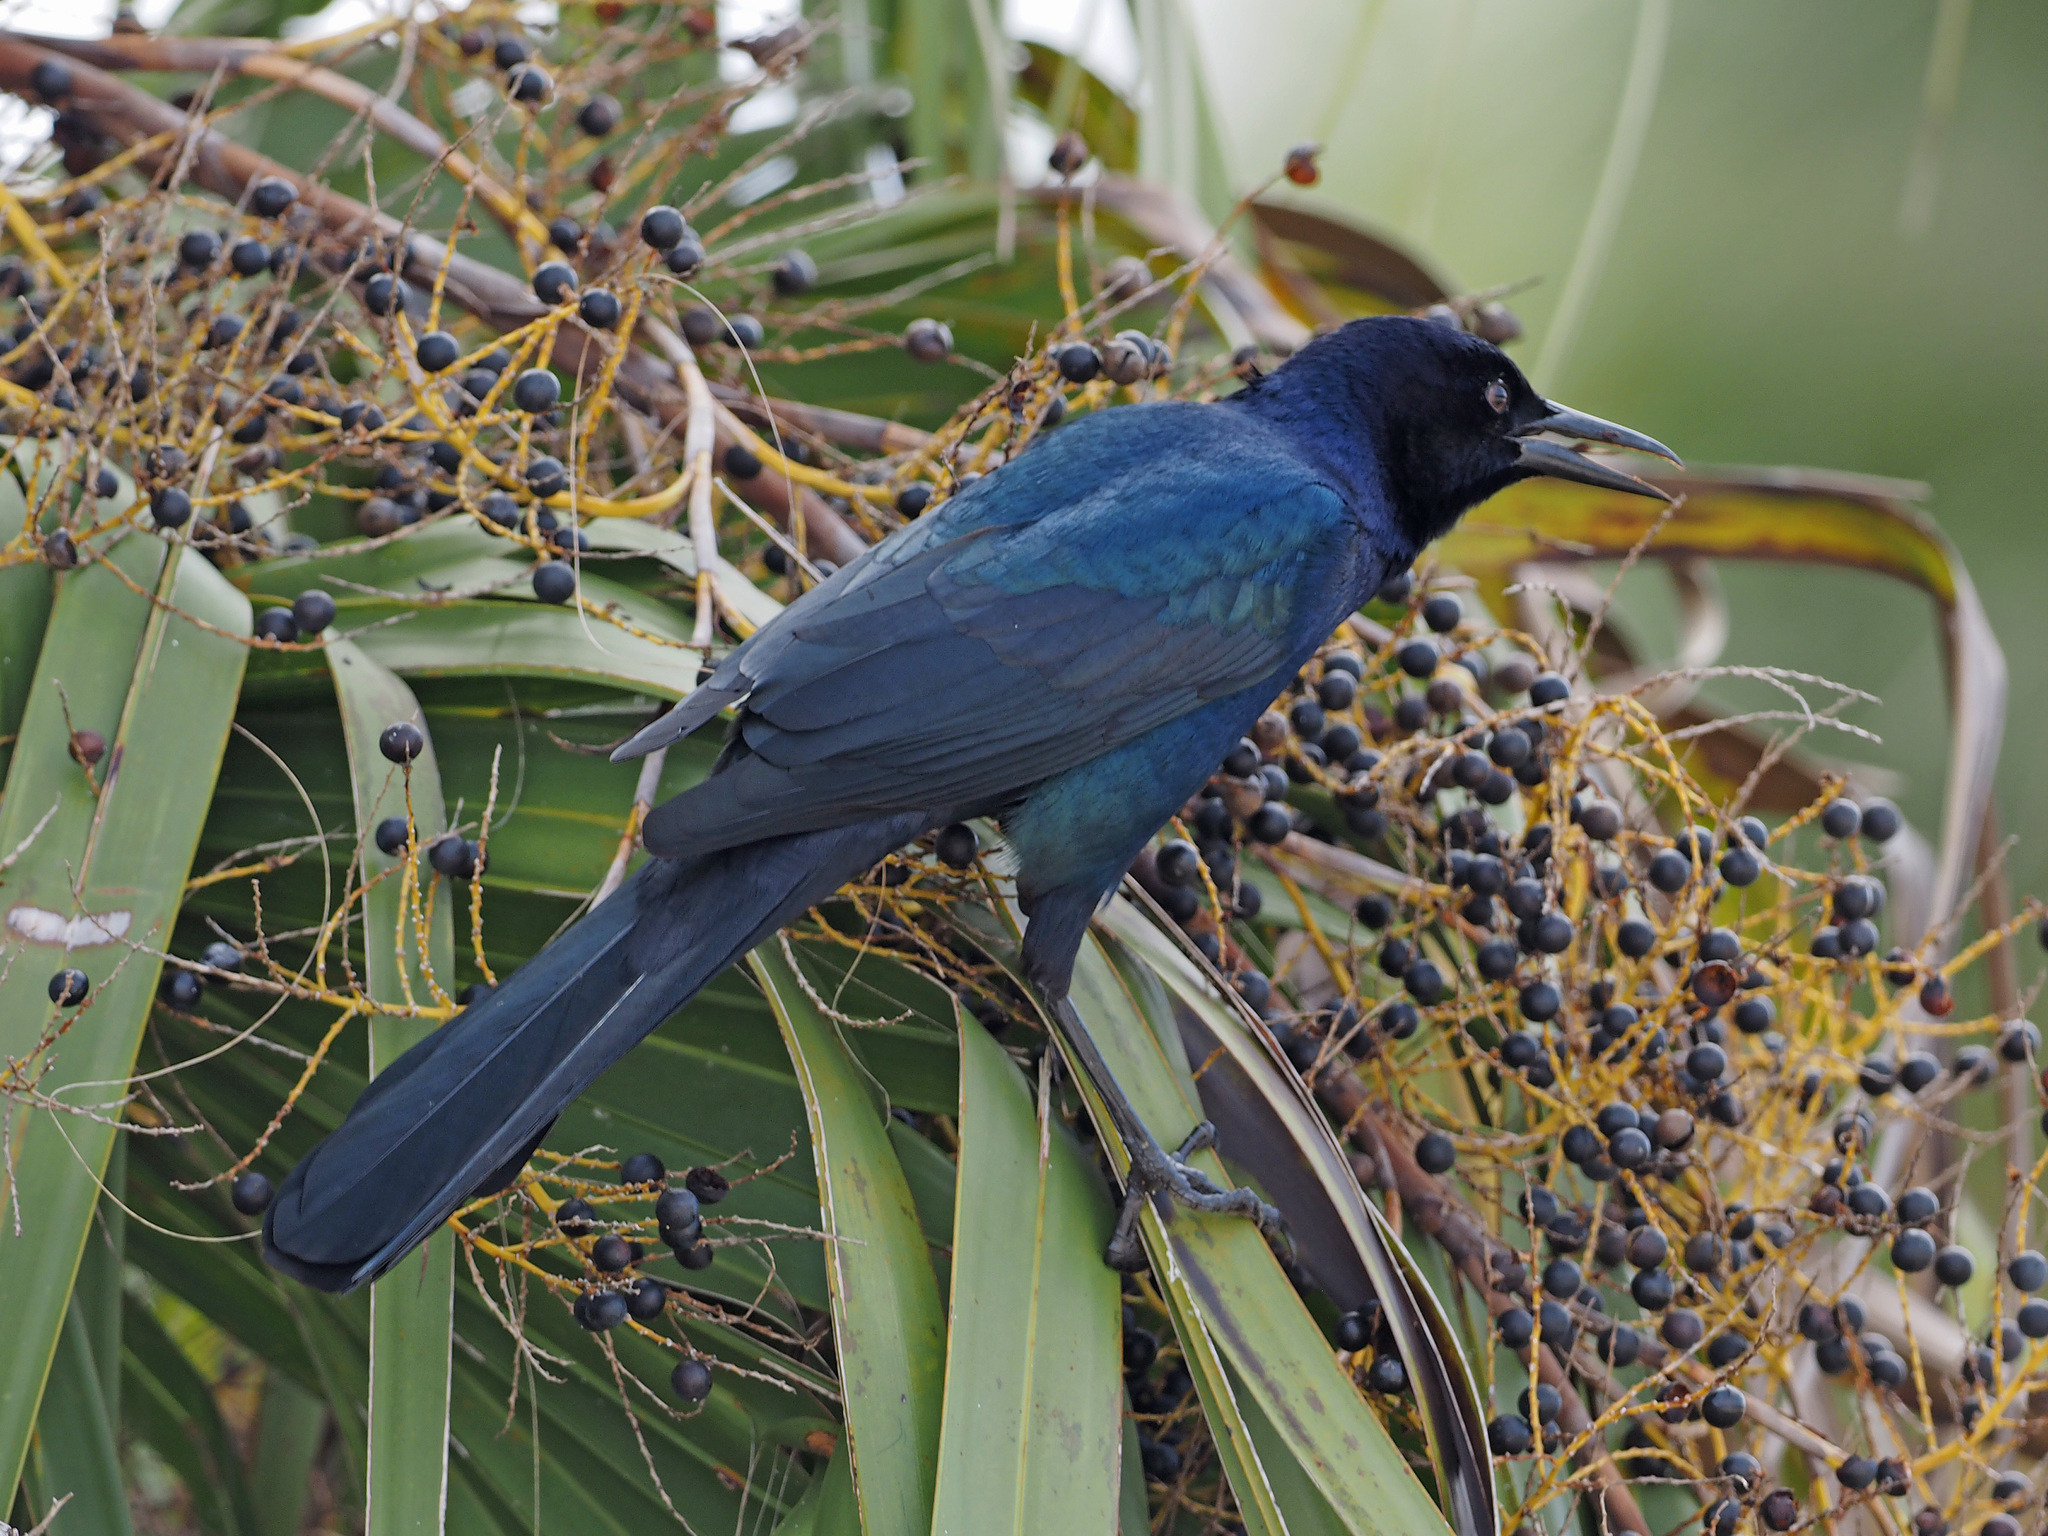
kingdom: Animalia
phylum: Chordata
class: Aves
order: Passeriformes
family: Icteridae
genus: Quiscalus
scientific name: Quiscalus major
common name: Boat-tailed grackle
